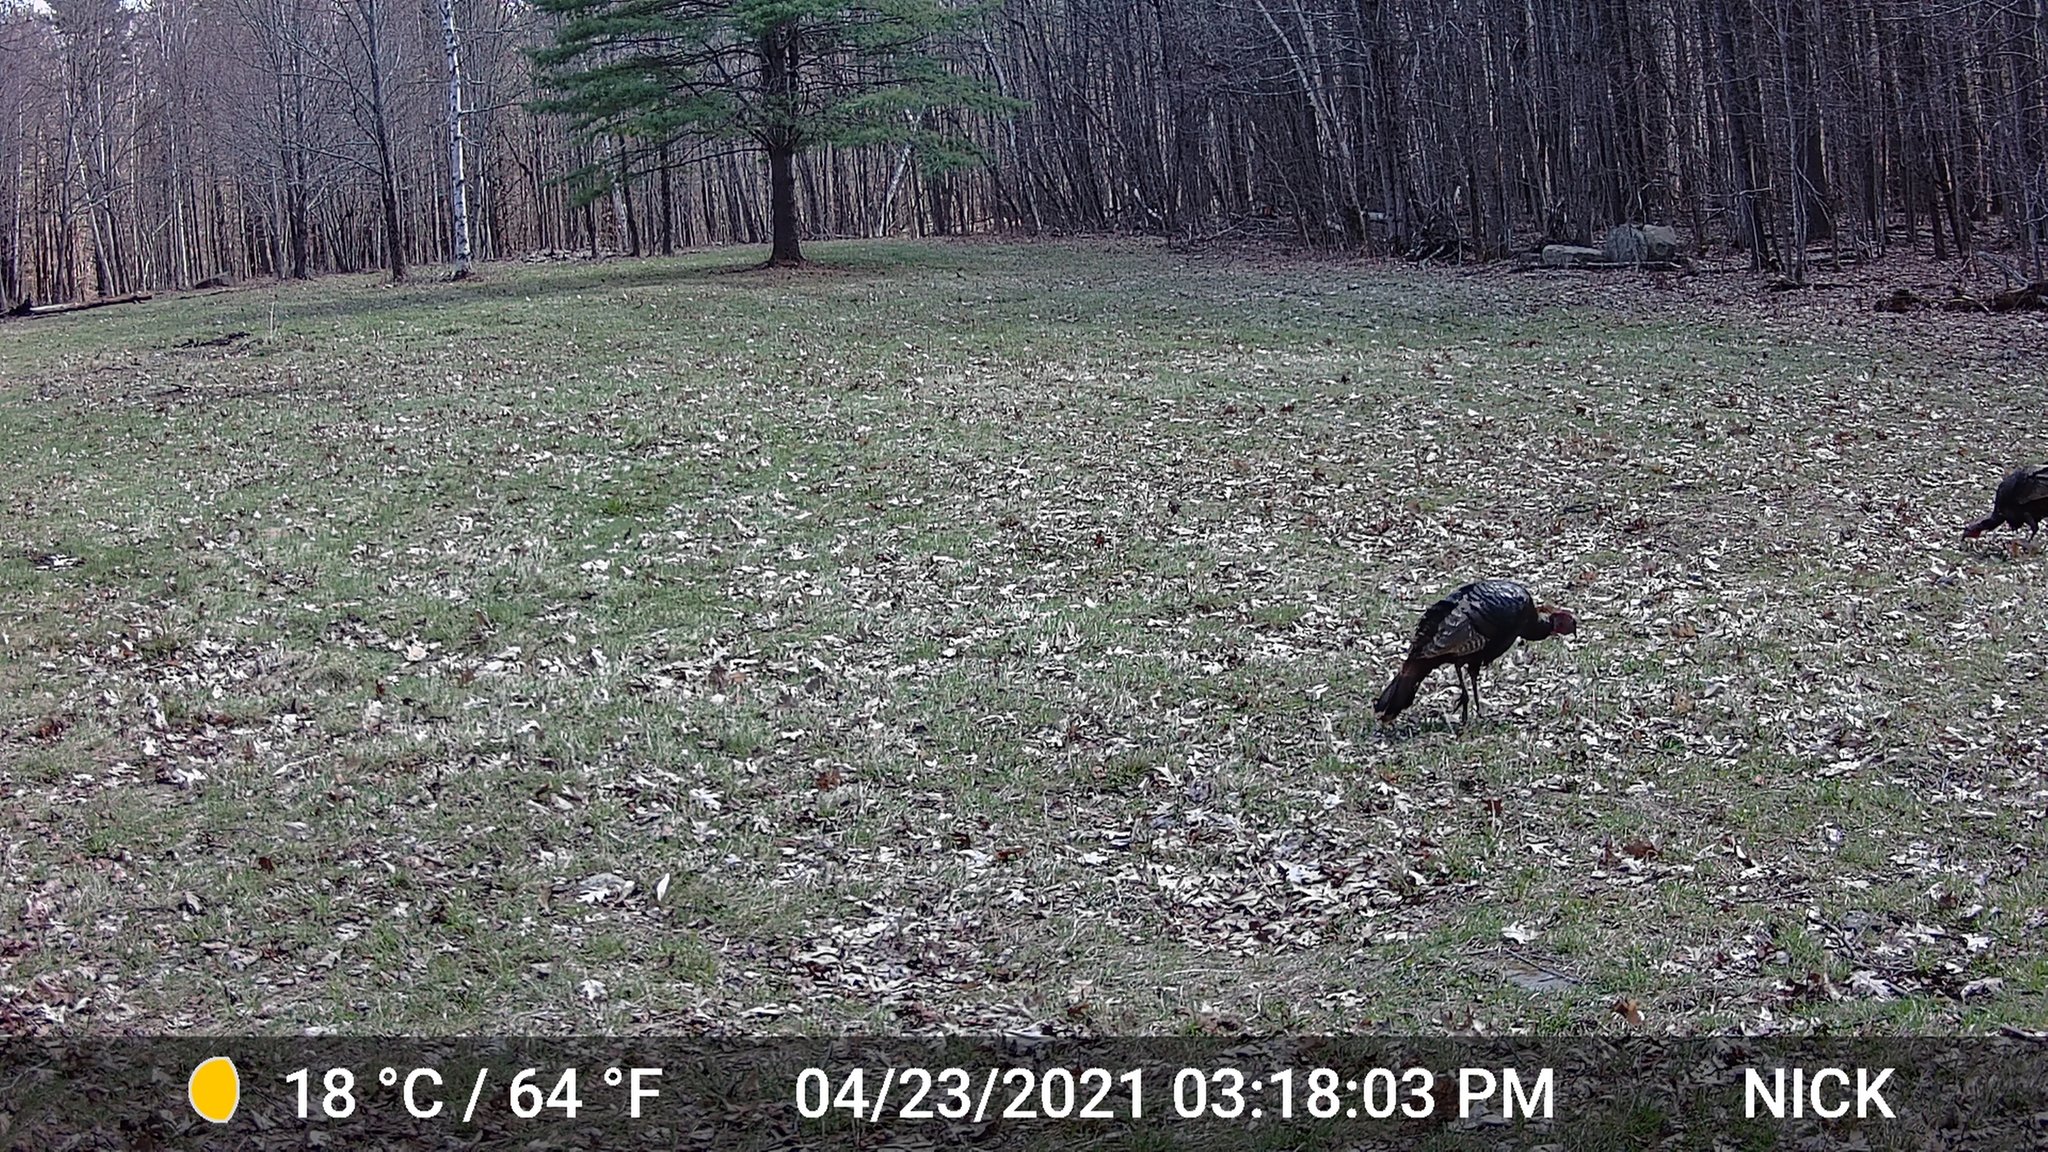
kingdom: Animalia
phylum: Chordata
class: Aves
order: Galliformes
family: Phasianidae
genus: Meleagris
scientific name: Meleagris gallopavo
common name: Wild turkey
